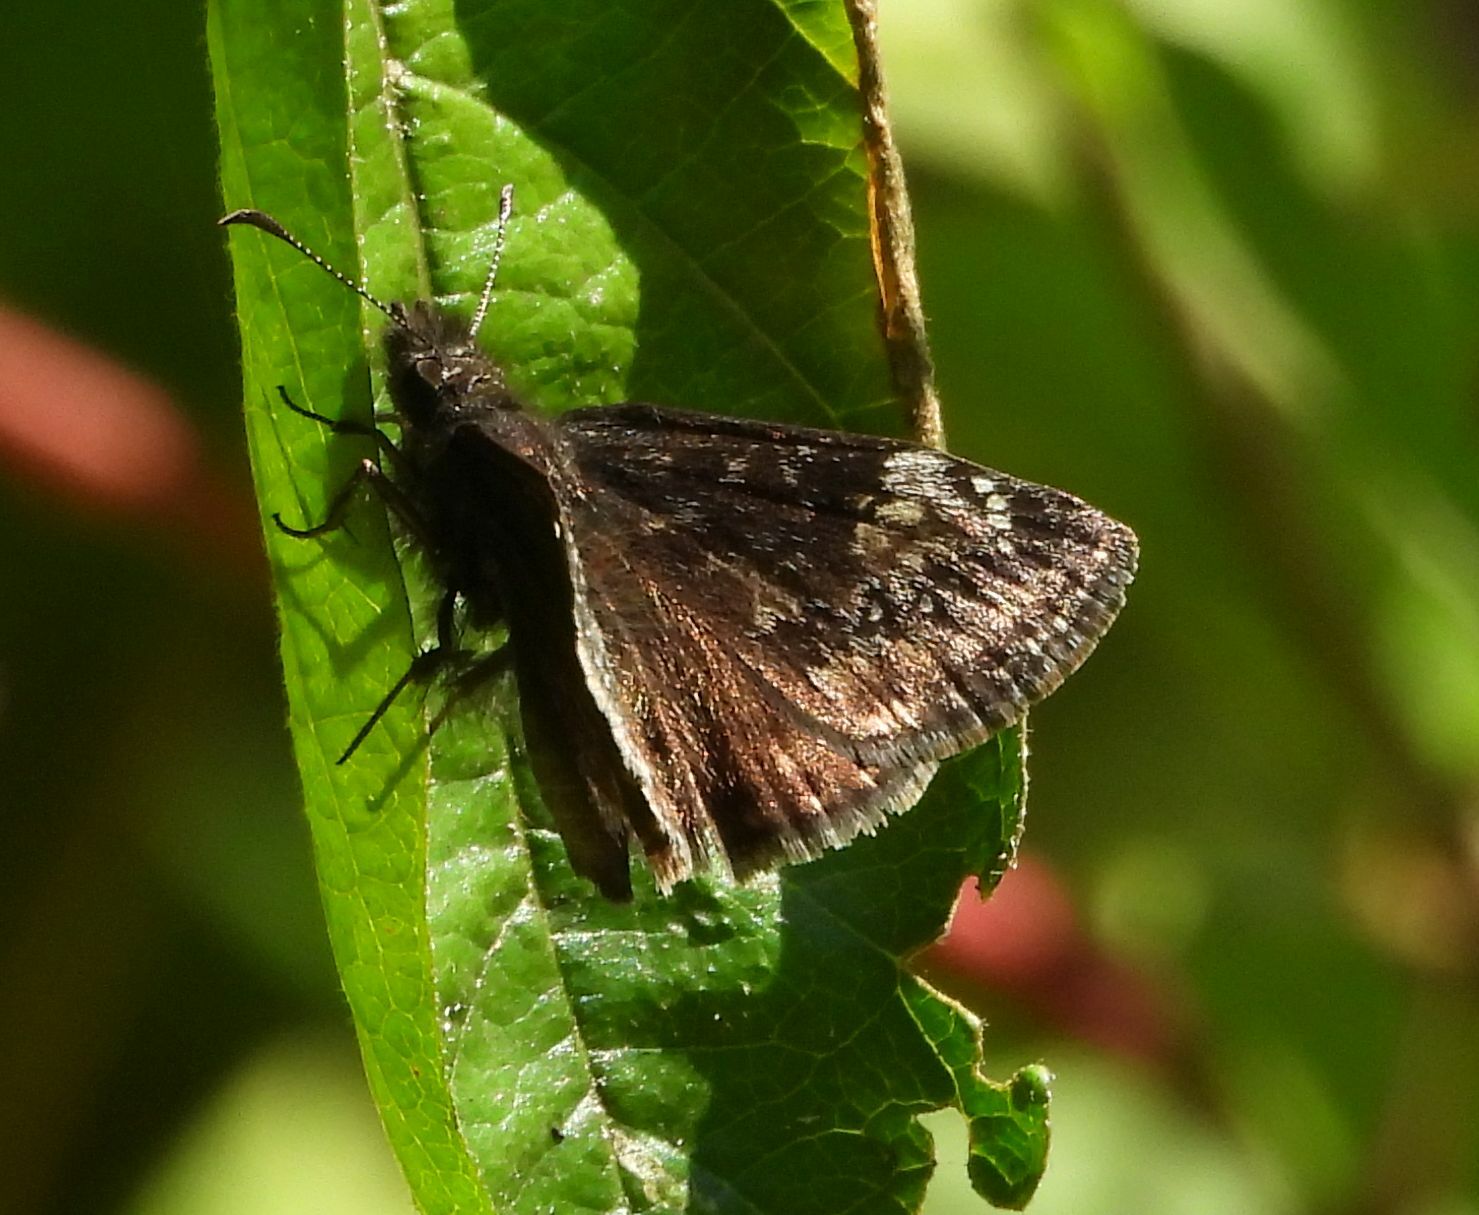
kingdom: Animalia
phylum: Arthropoda
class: Insecta
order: Lepidoptera
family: Hesperiidae
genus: Erynnis
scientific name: Erynnis baptisiae
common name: Wild indigo duskywing
